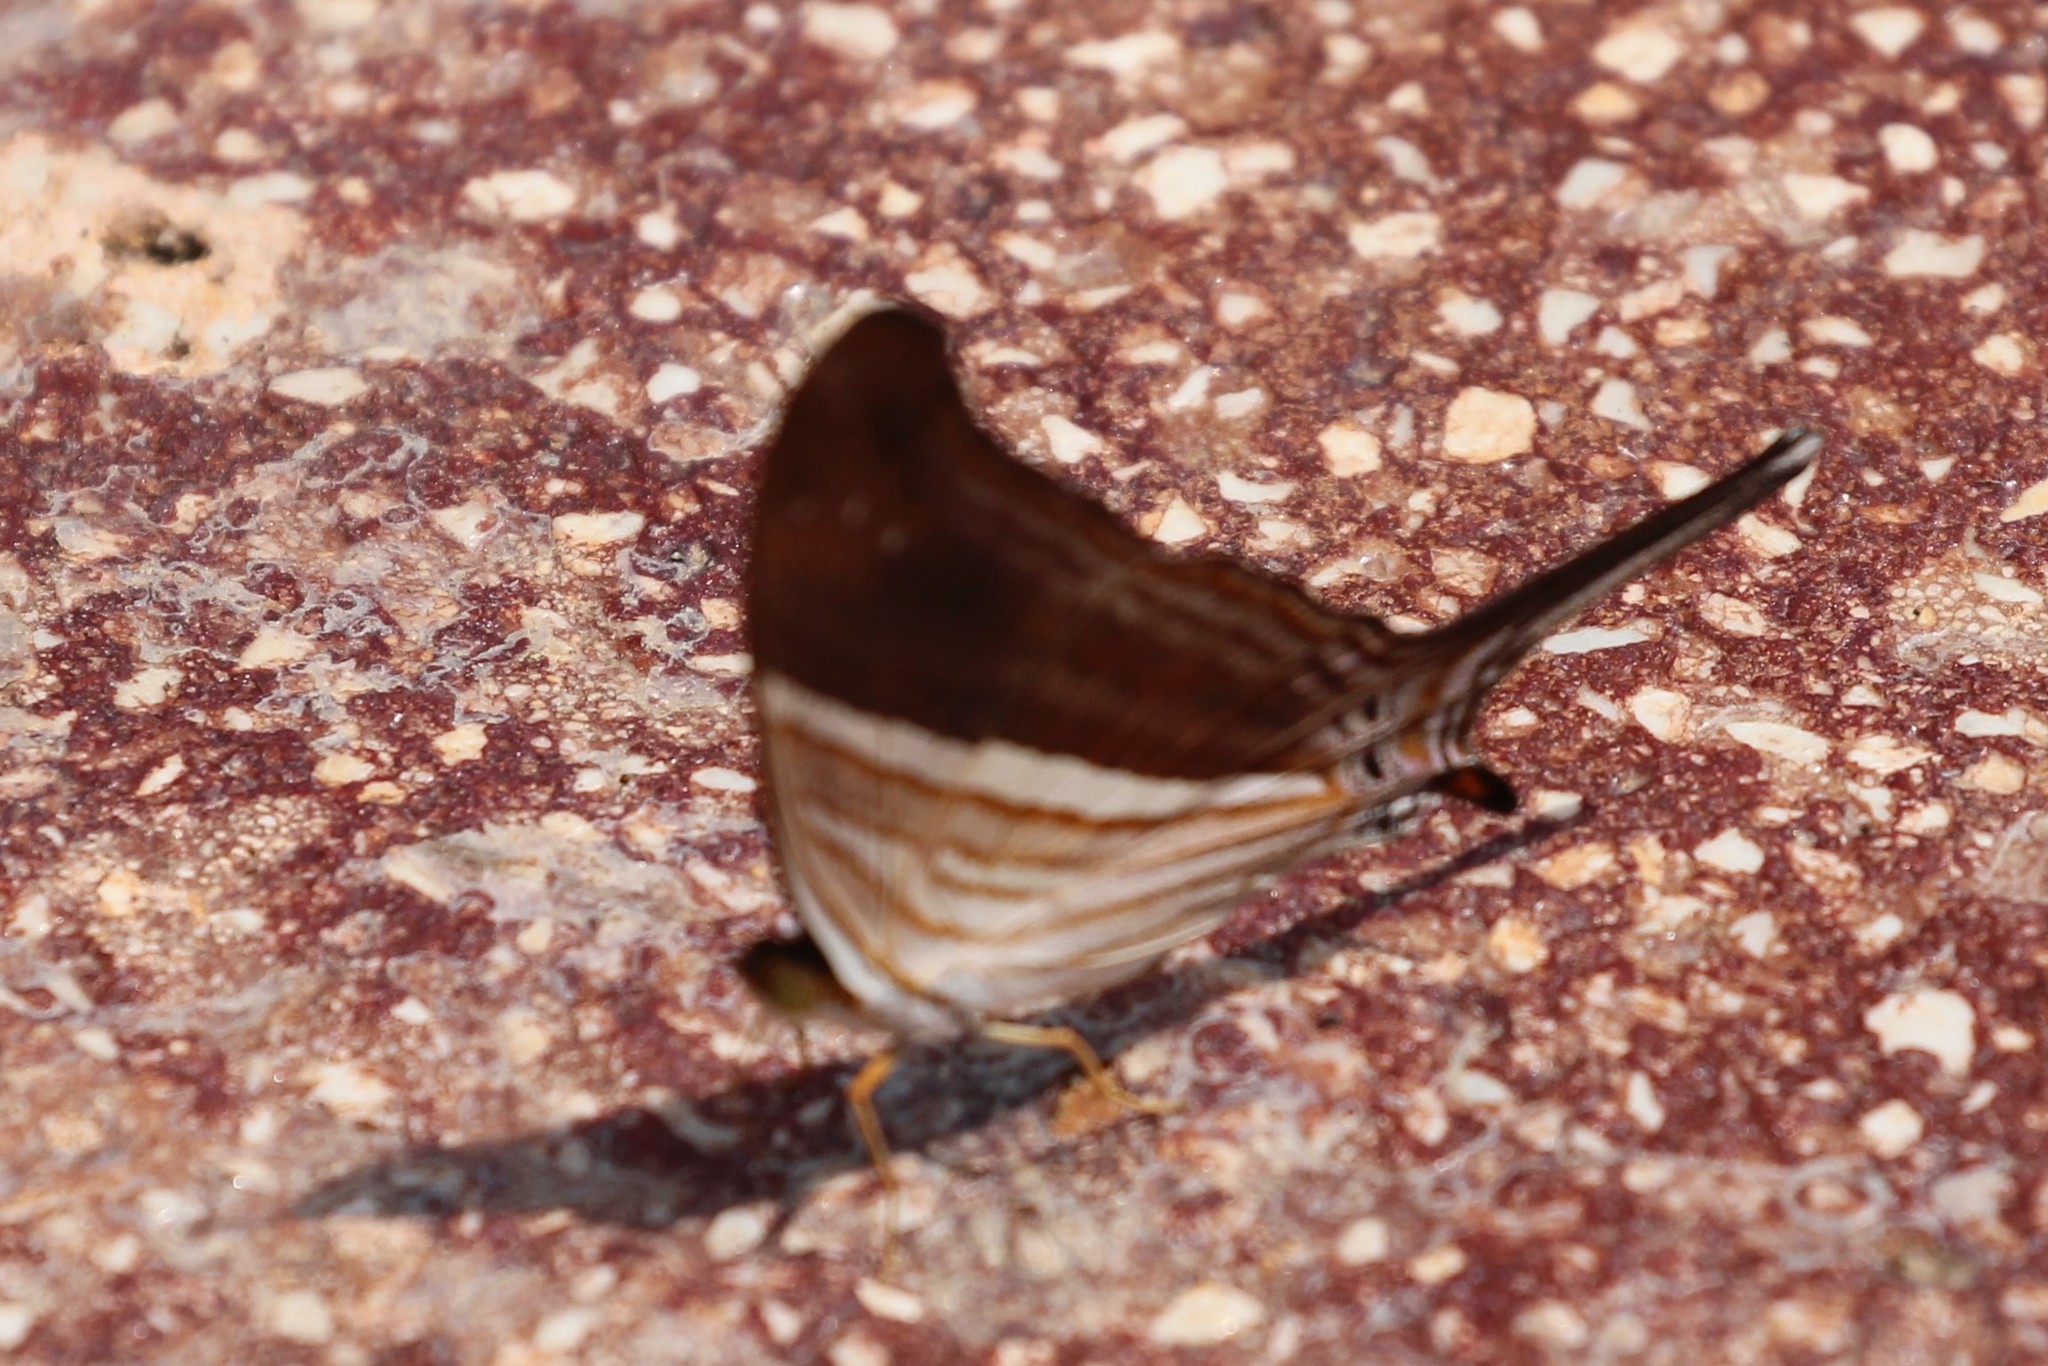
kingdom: Animalia
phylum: Arthropoda
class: Insecta
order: Lepidoptera
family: Nymphalidae
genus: Marpesia
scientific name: Marpesia chiron
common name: Many-banded daggerwing
